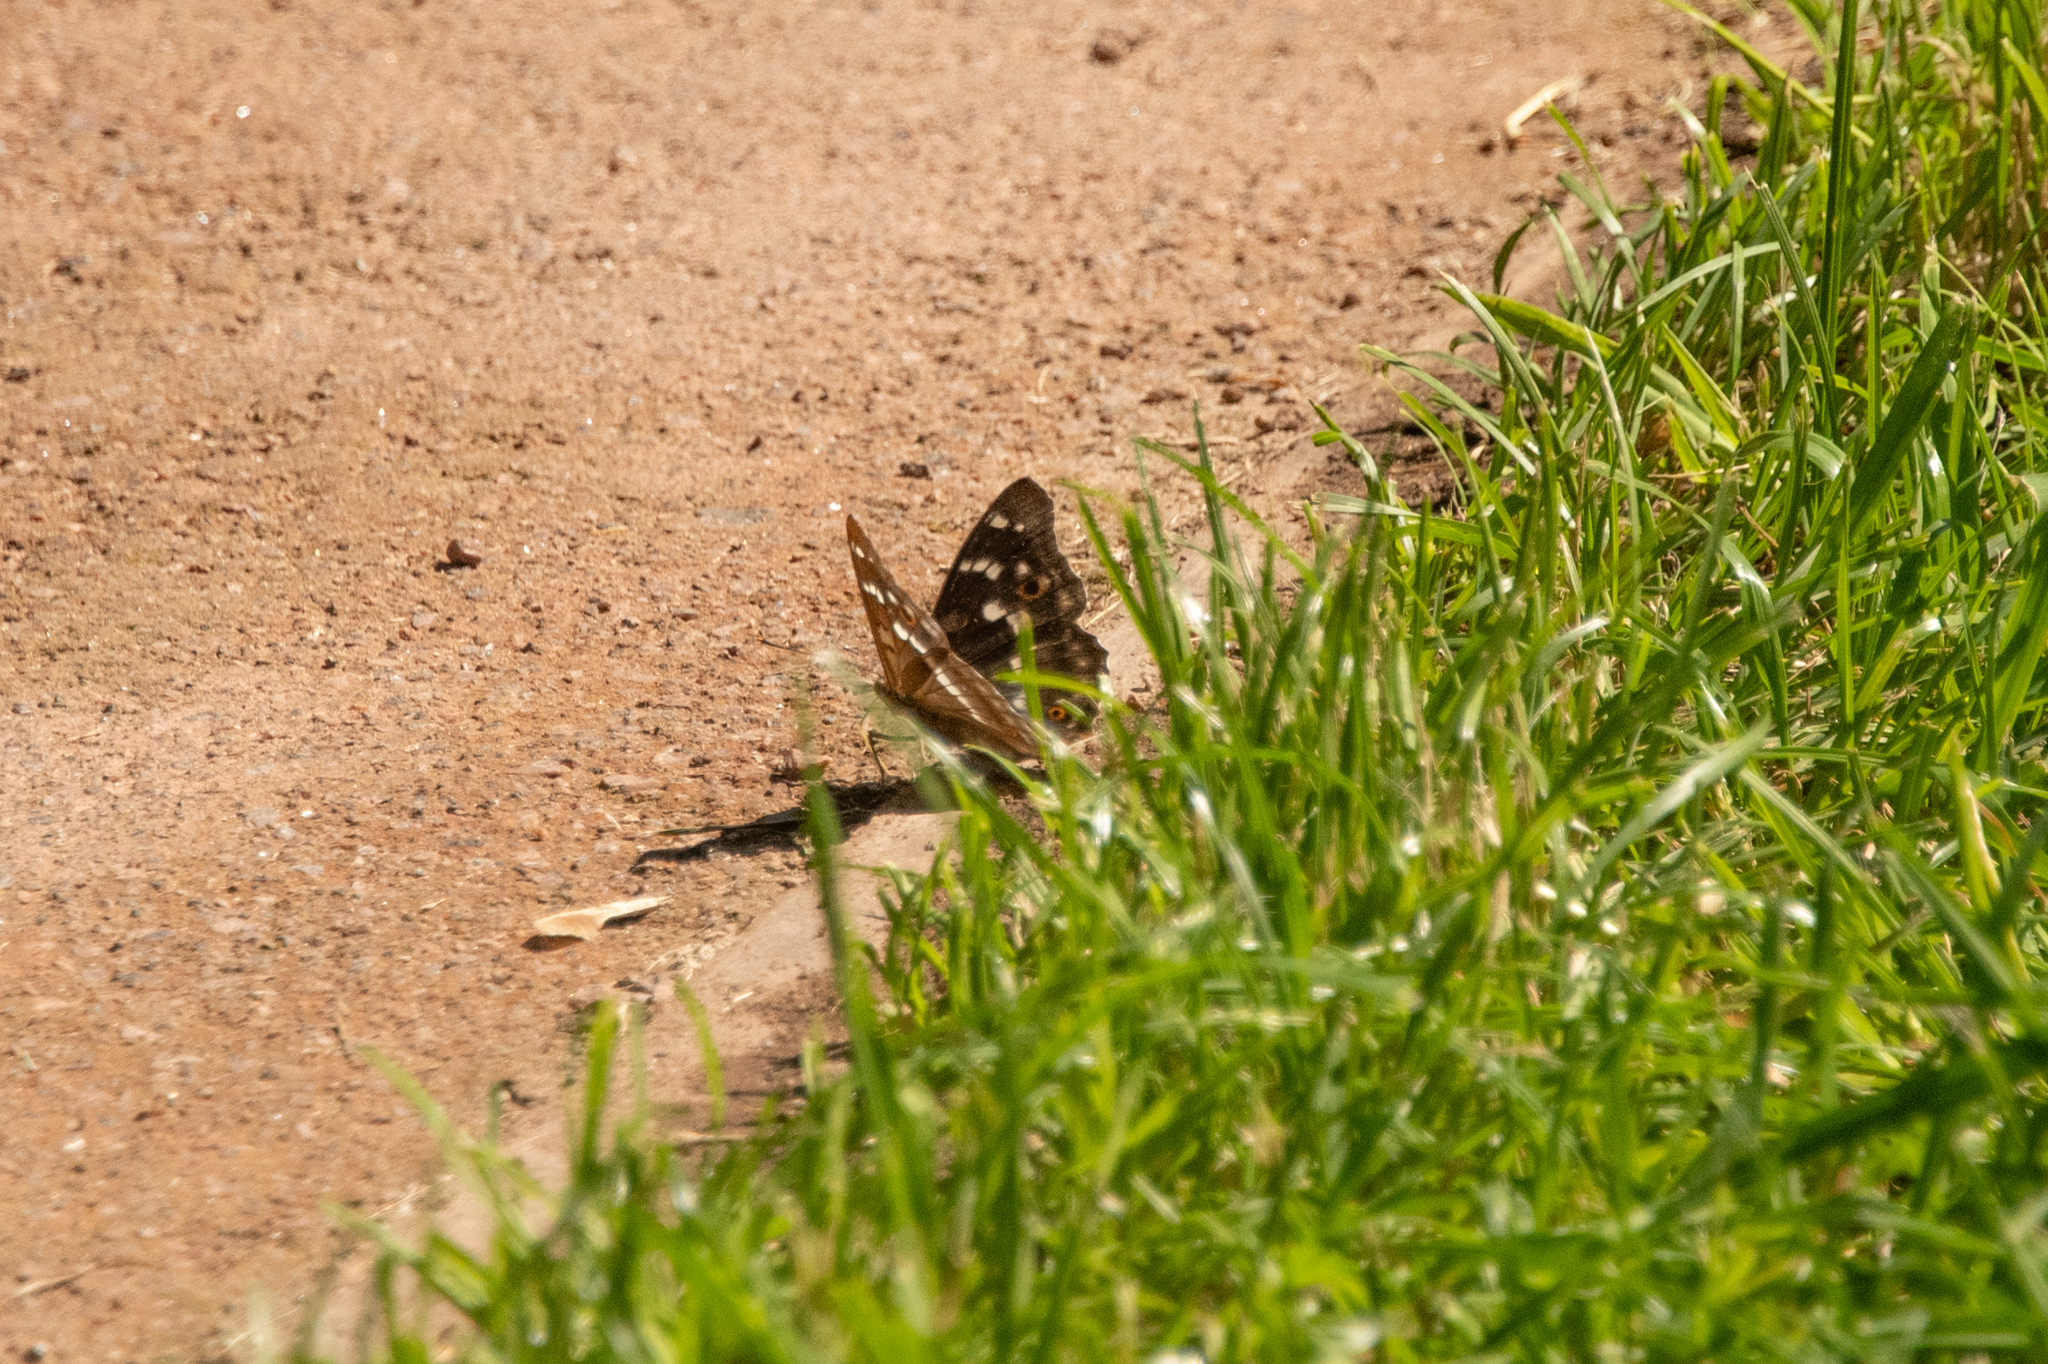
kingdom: Animalia
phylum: Arthropoda
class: Insecta
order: Lepidoptera
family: Nymphalidae
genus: Apatura
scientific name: Apatura ilia
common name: Lesser purple emperor
